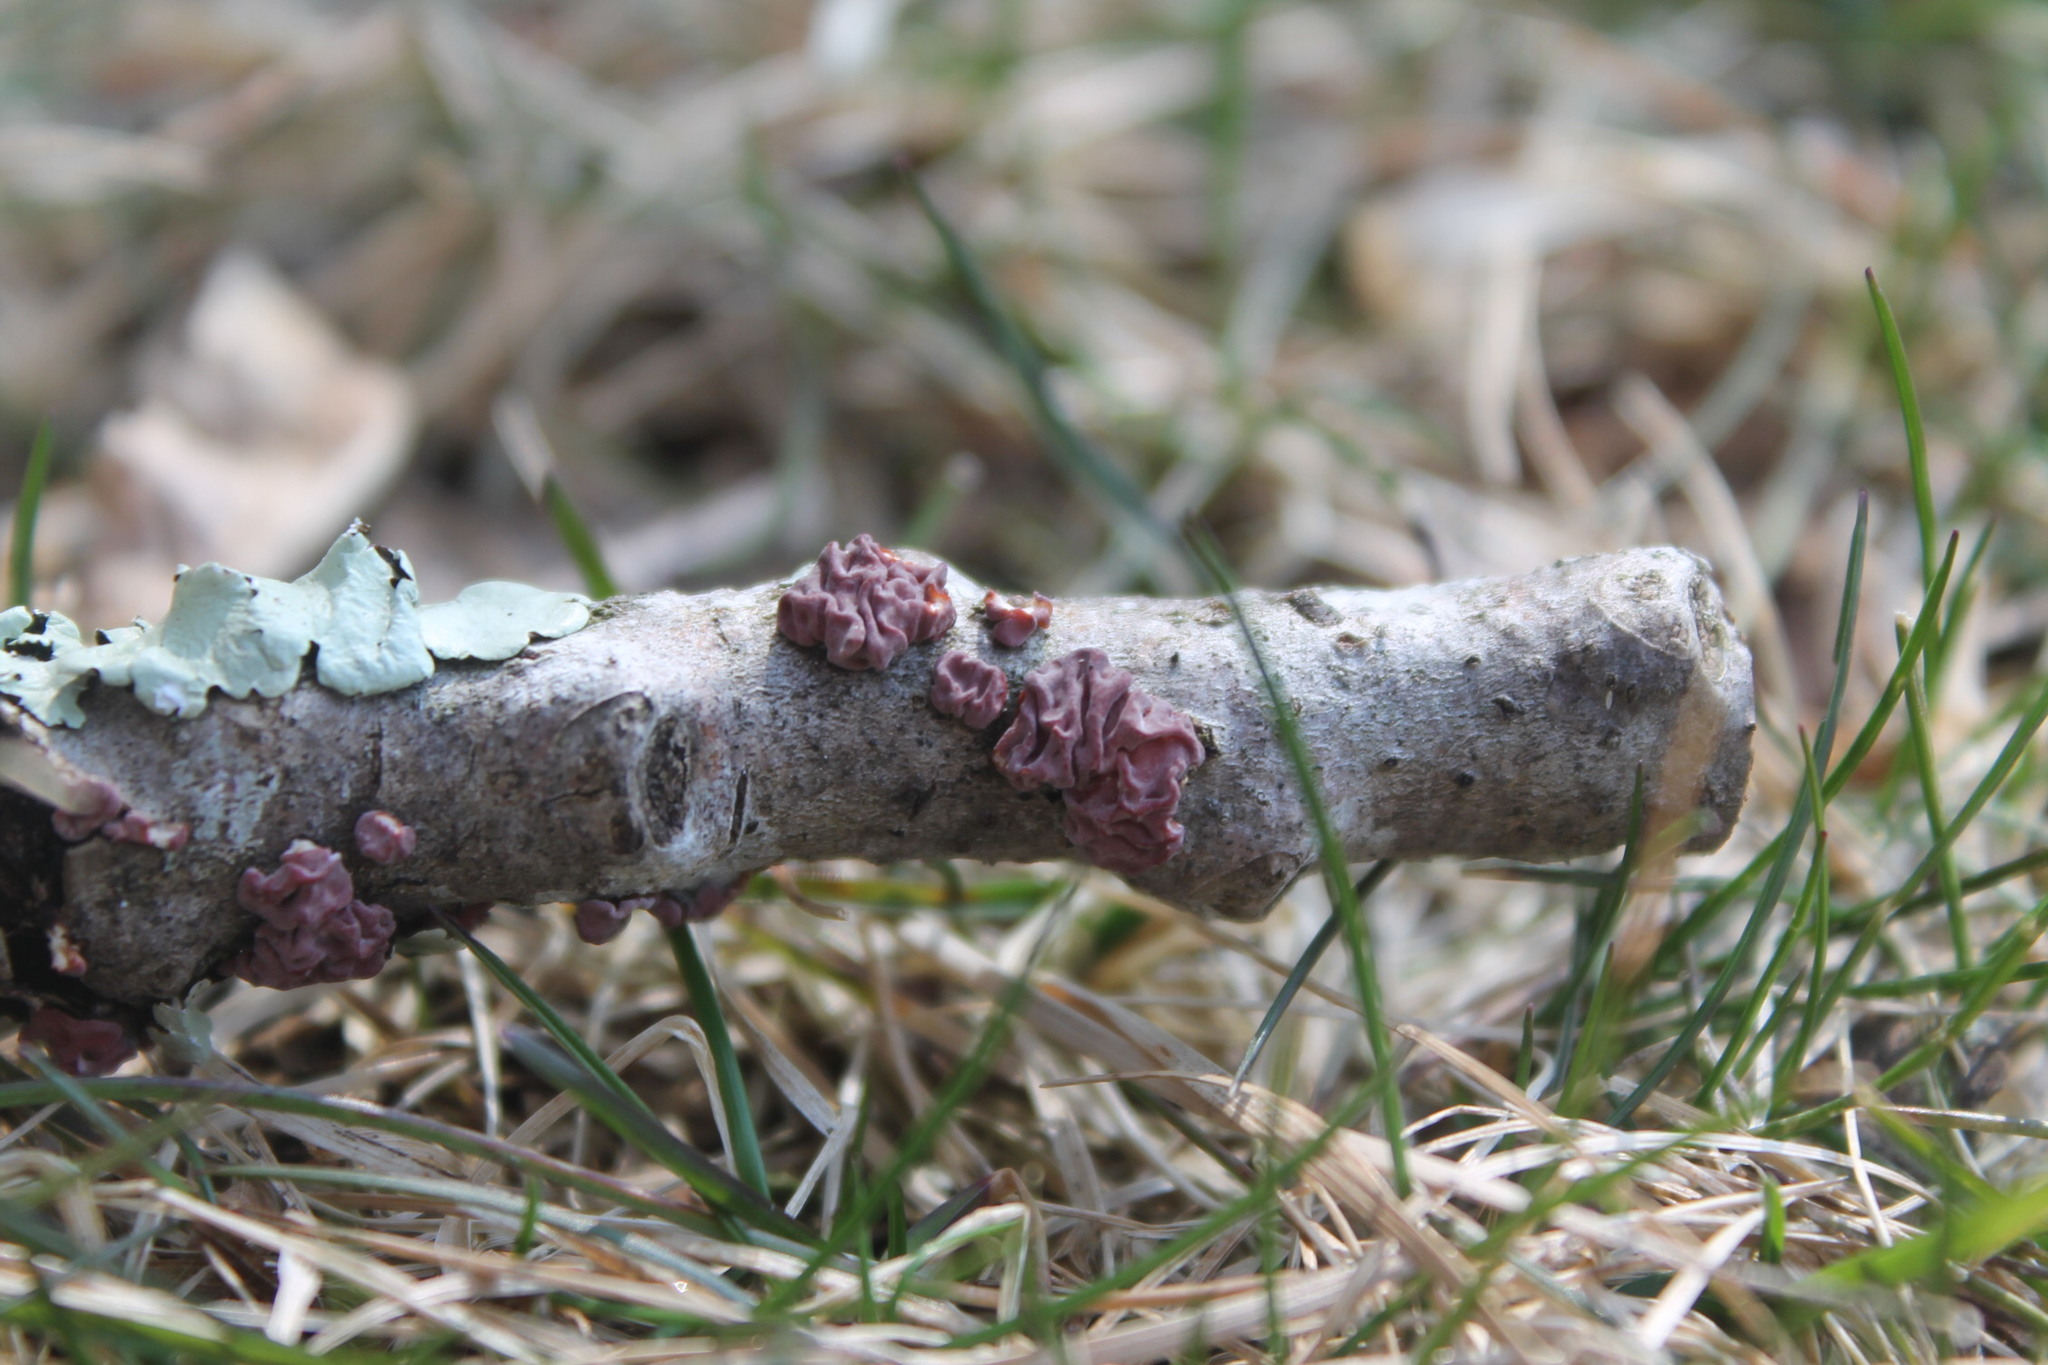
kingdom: Fungi
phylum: Basidiomycota
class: Agaricomycetes
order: Russulales
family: Peniophoraceae
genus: Peniophora
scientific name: Peniophora rufa
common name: Red tree brain fungus
